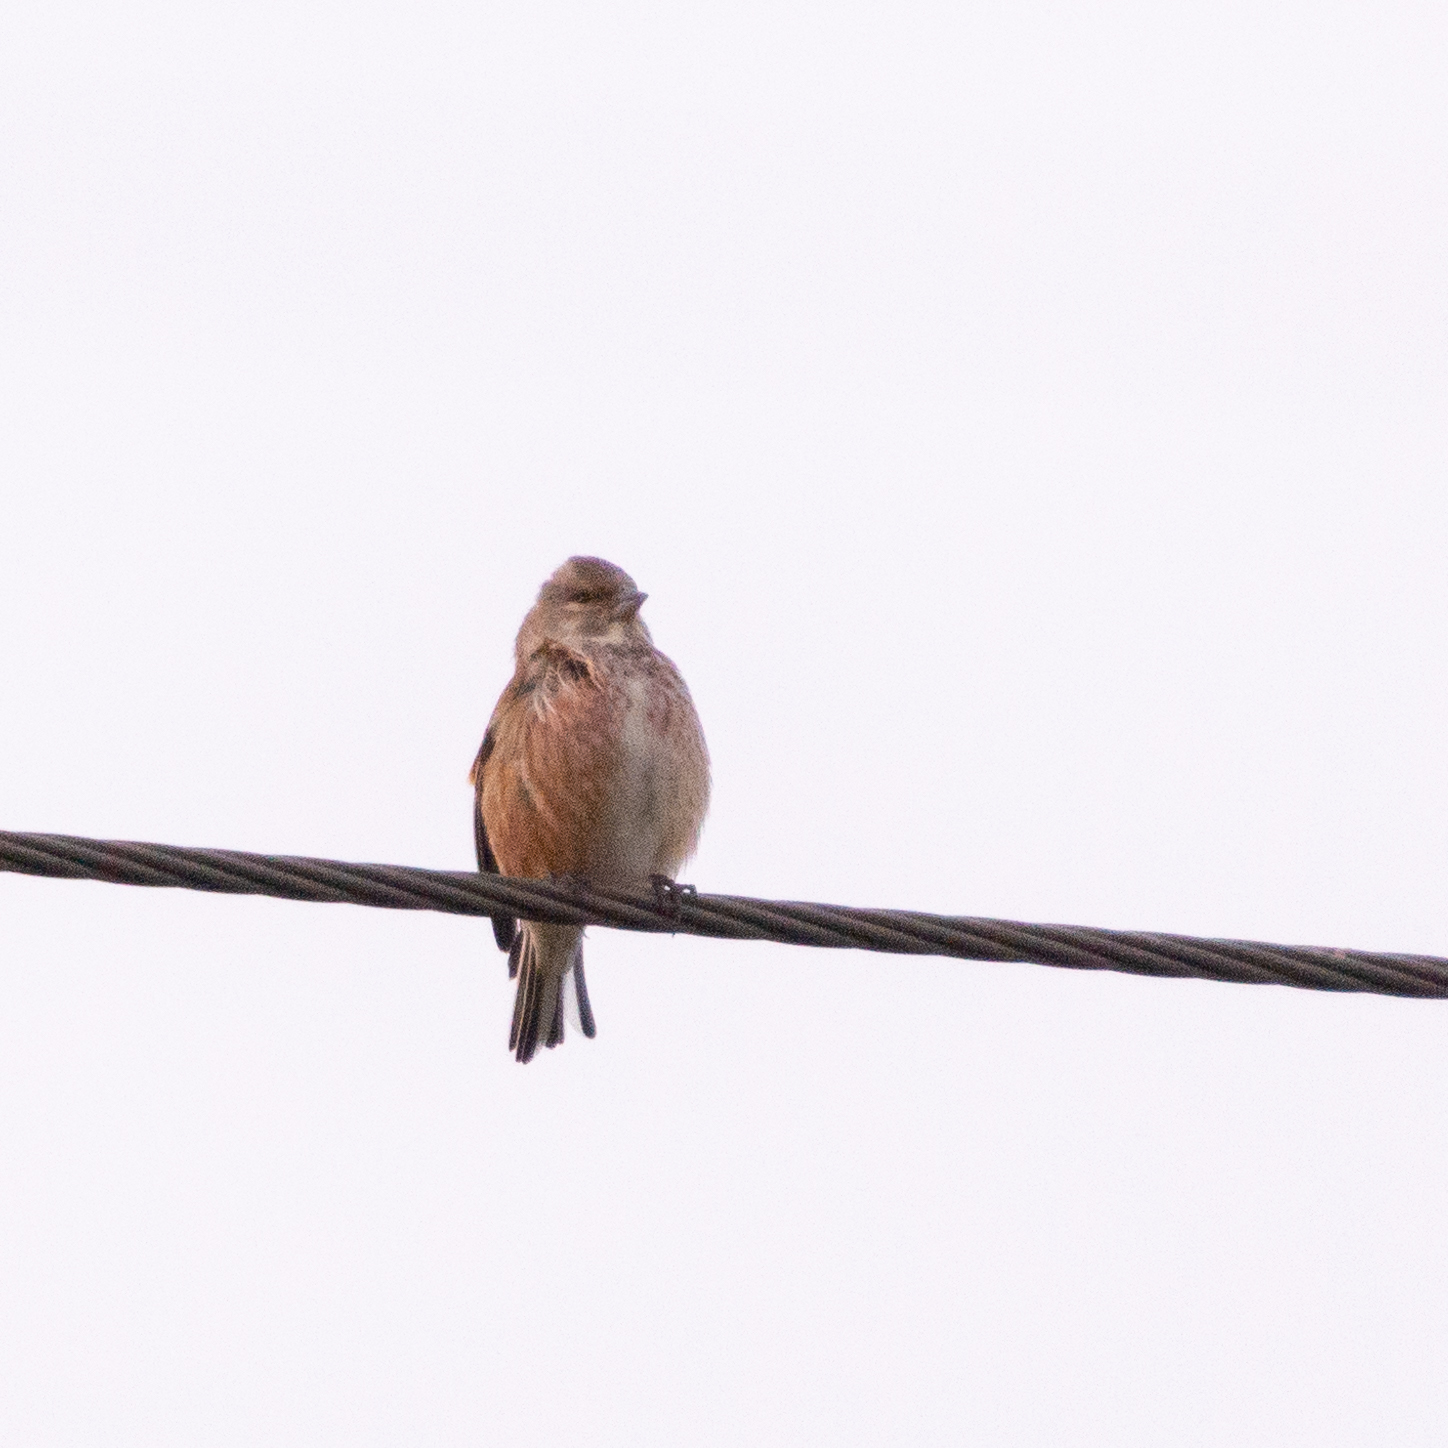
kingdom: Animalia
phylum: Chordata
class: Aves
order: Passeriformes
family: Fringillidae
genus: Linaria
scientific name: Linaria cannabina
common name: Common linnet
